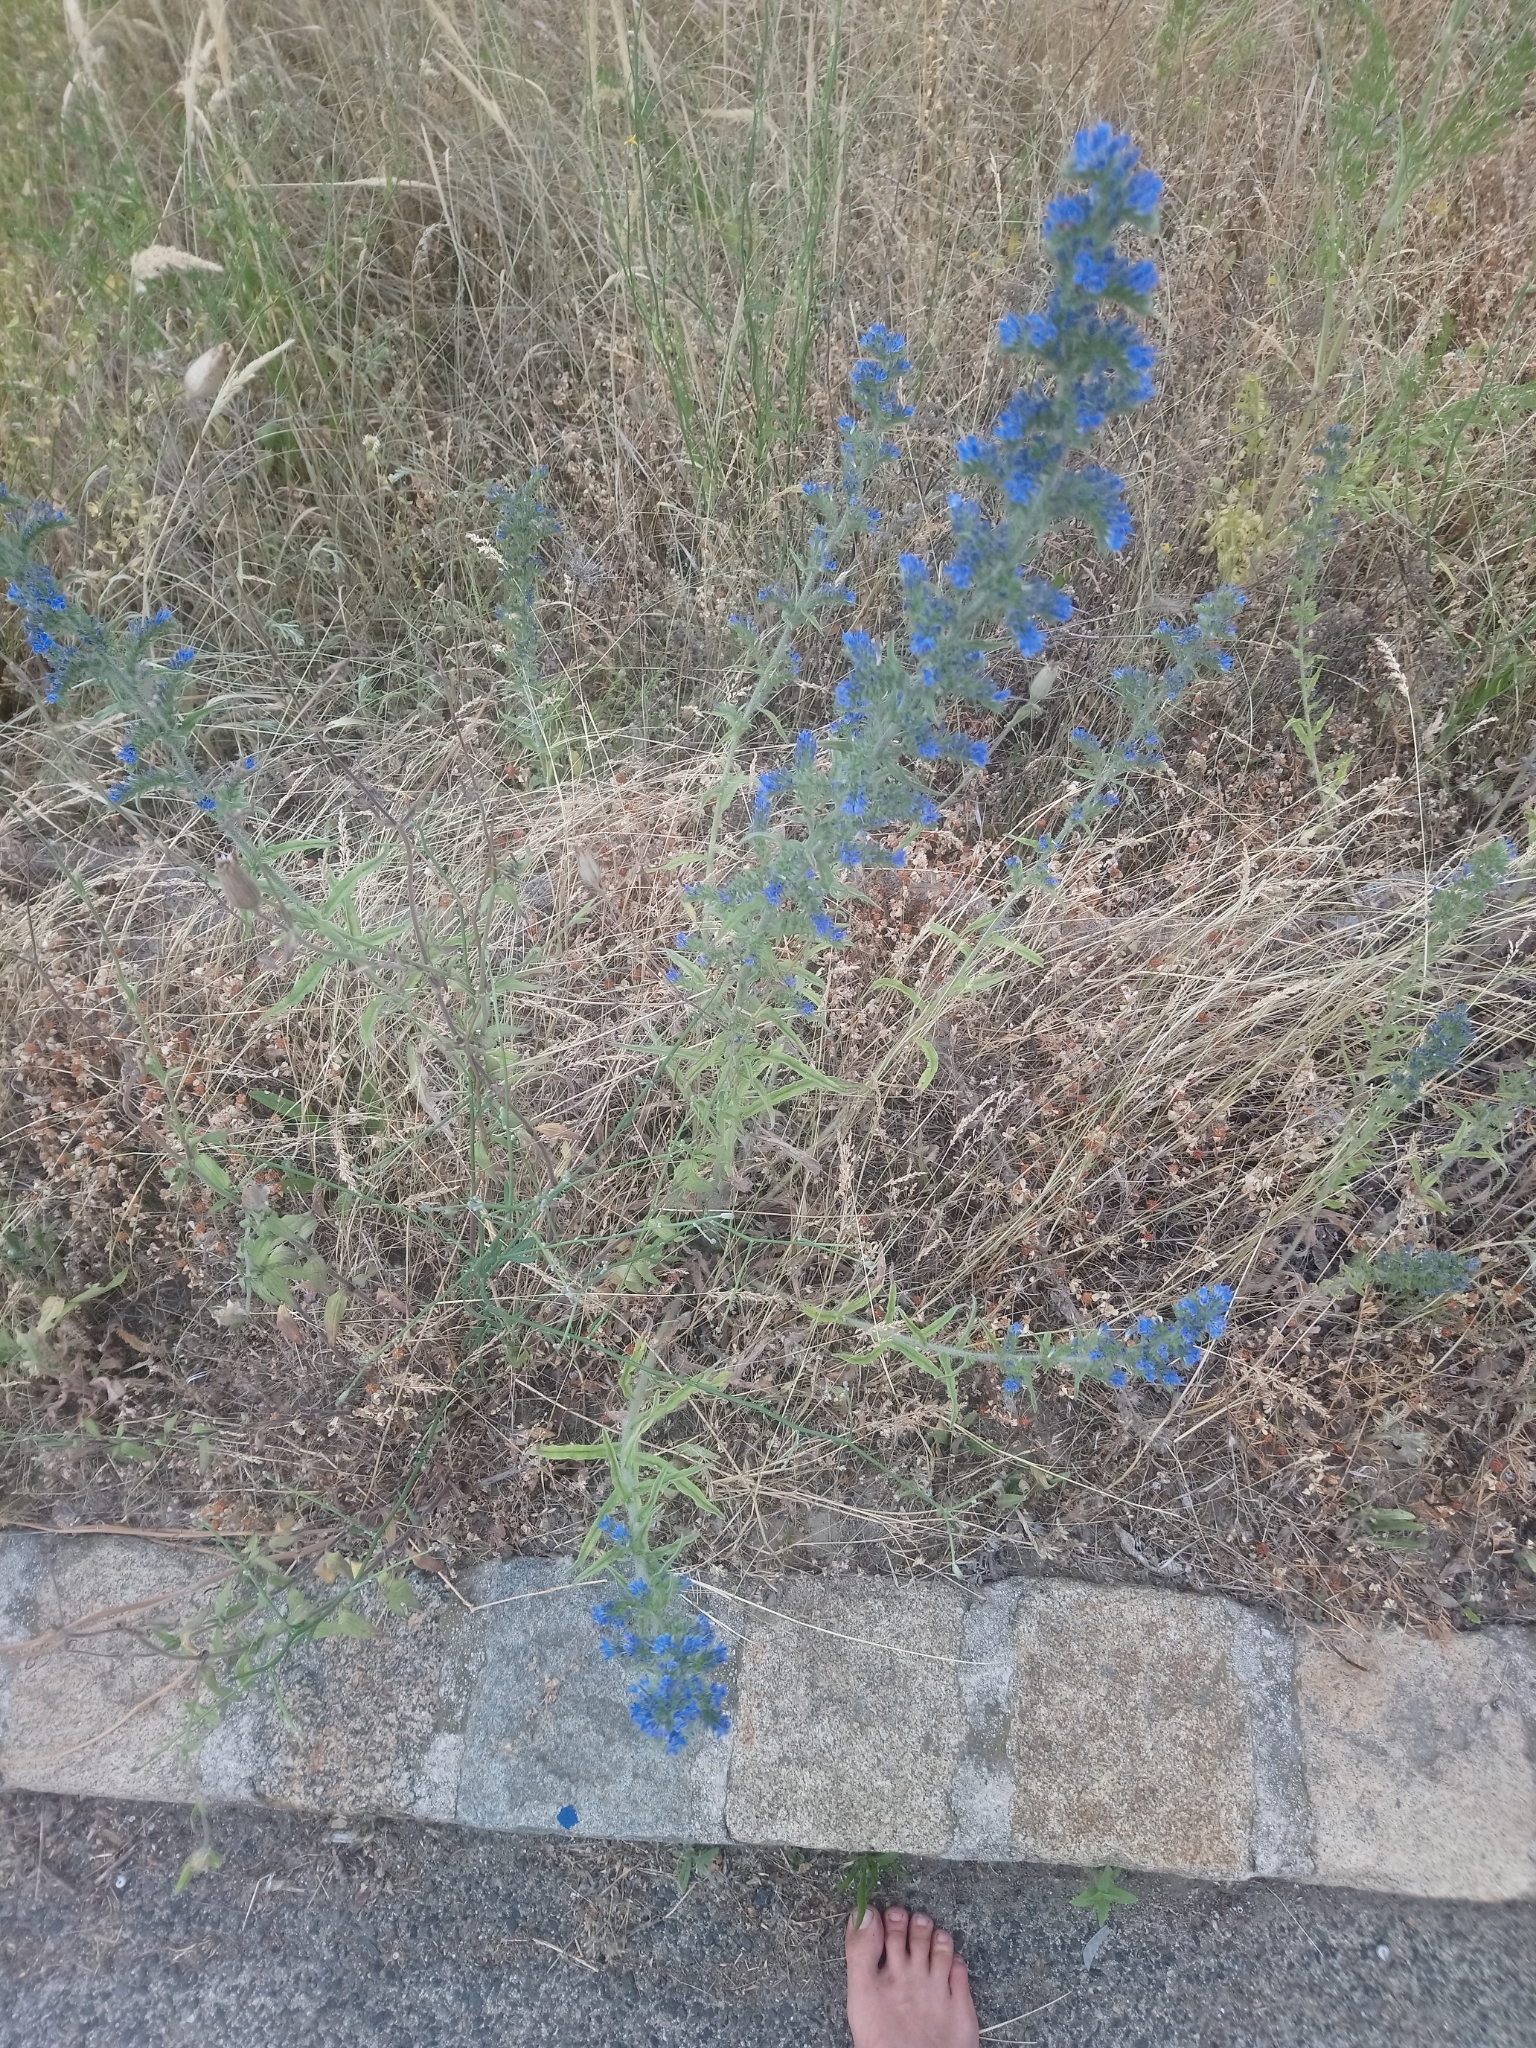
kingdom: Plantae
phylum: Tracheophyta
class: Magnoliopsida
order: Boraginales
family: Boraginaceae
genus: Echium
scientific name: Echium vulgare
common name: Common viper's bugloss
